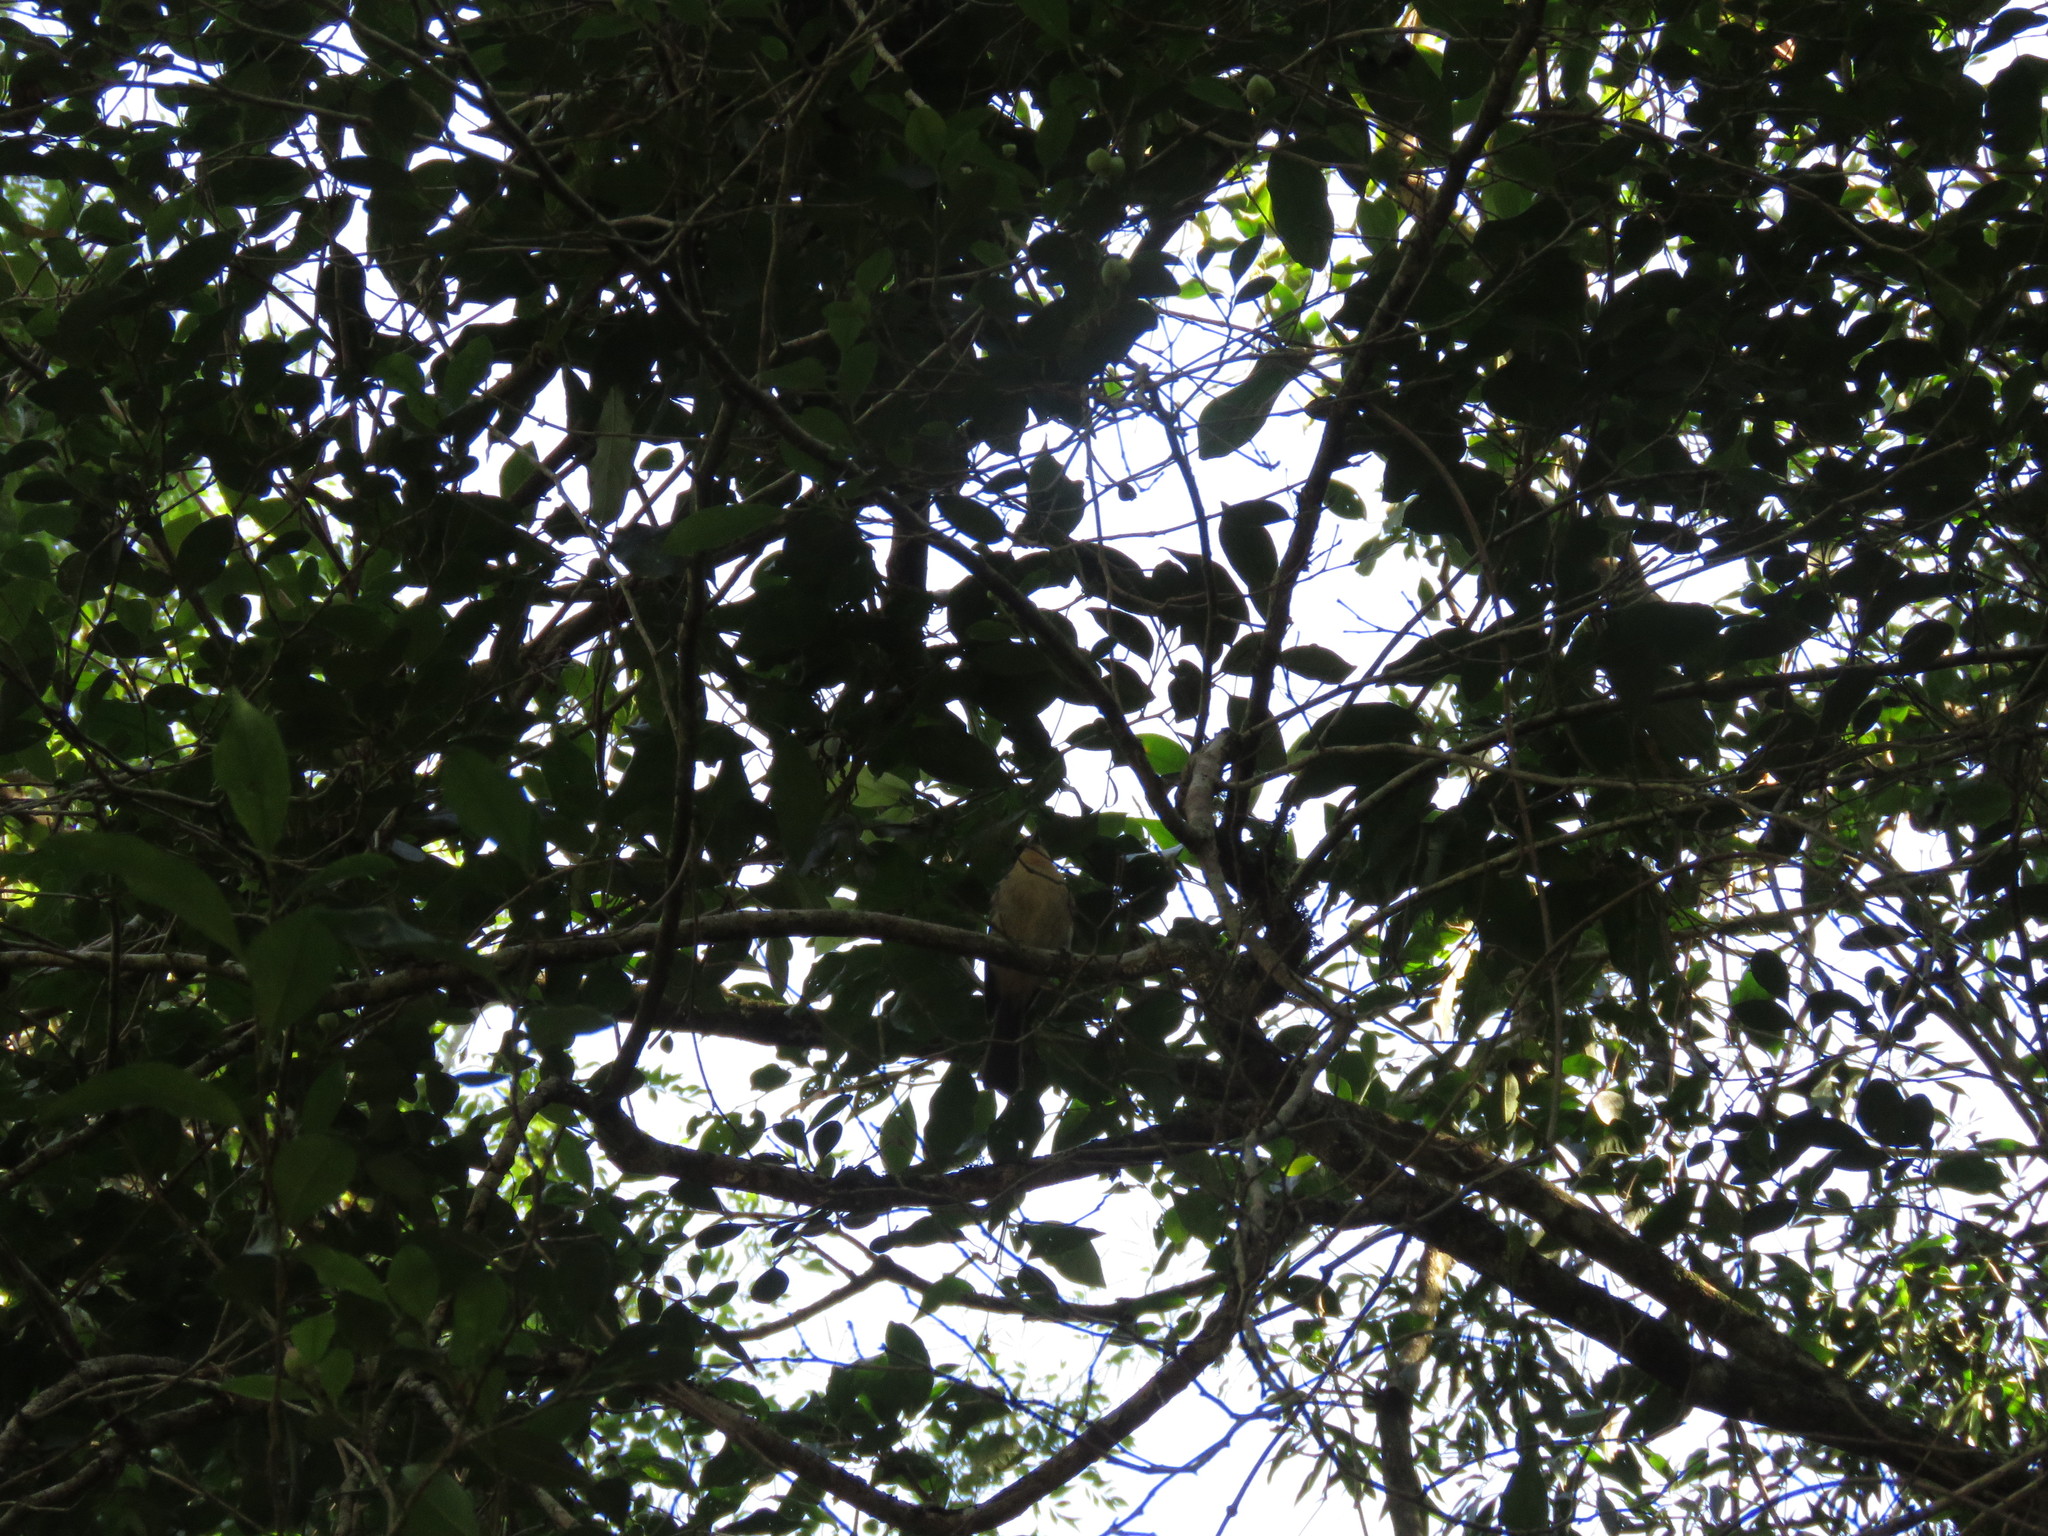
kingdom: Animalia
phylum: Chordata
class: Aves
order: Passeriformes
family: Thraupidae
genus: Trichothraupis
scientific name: Trichothraupis melanops
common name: Black-goggled tanager
